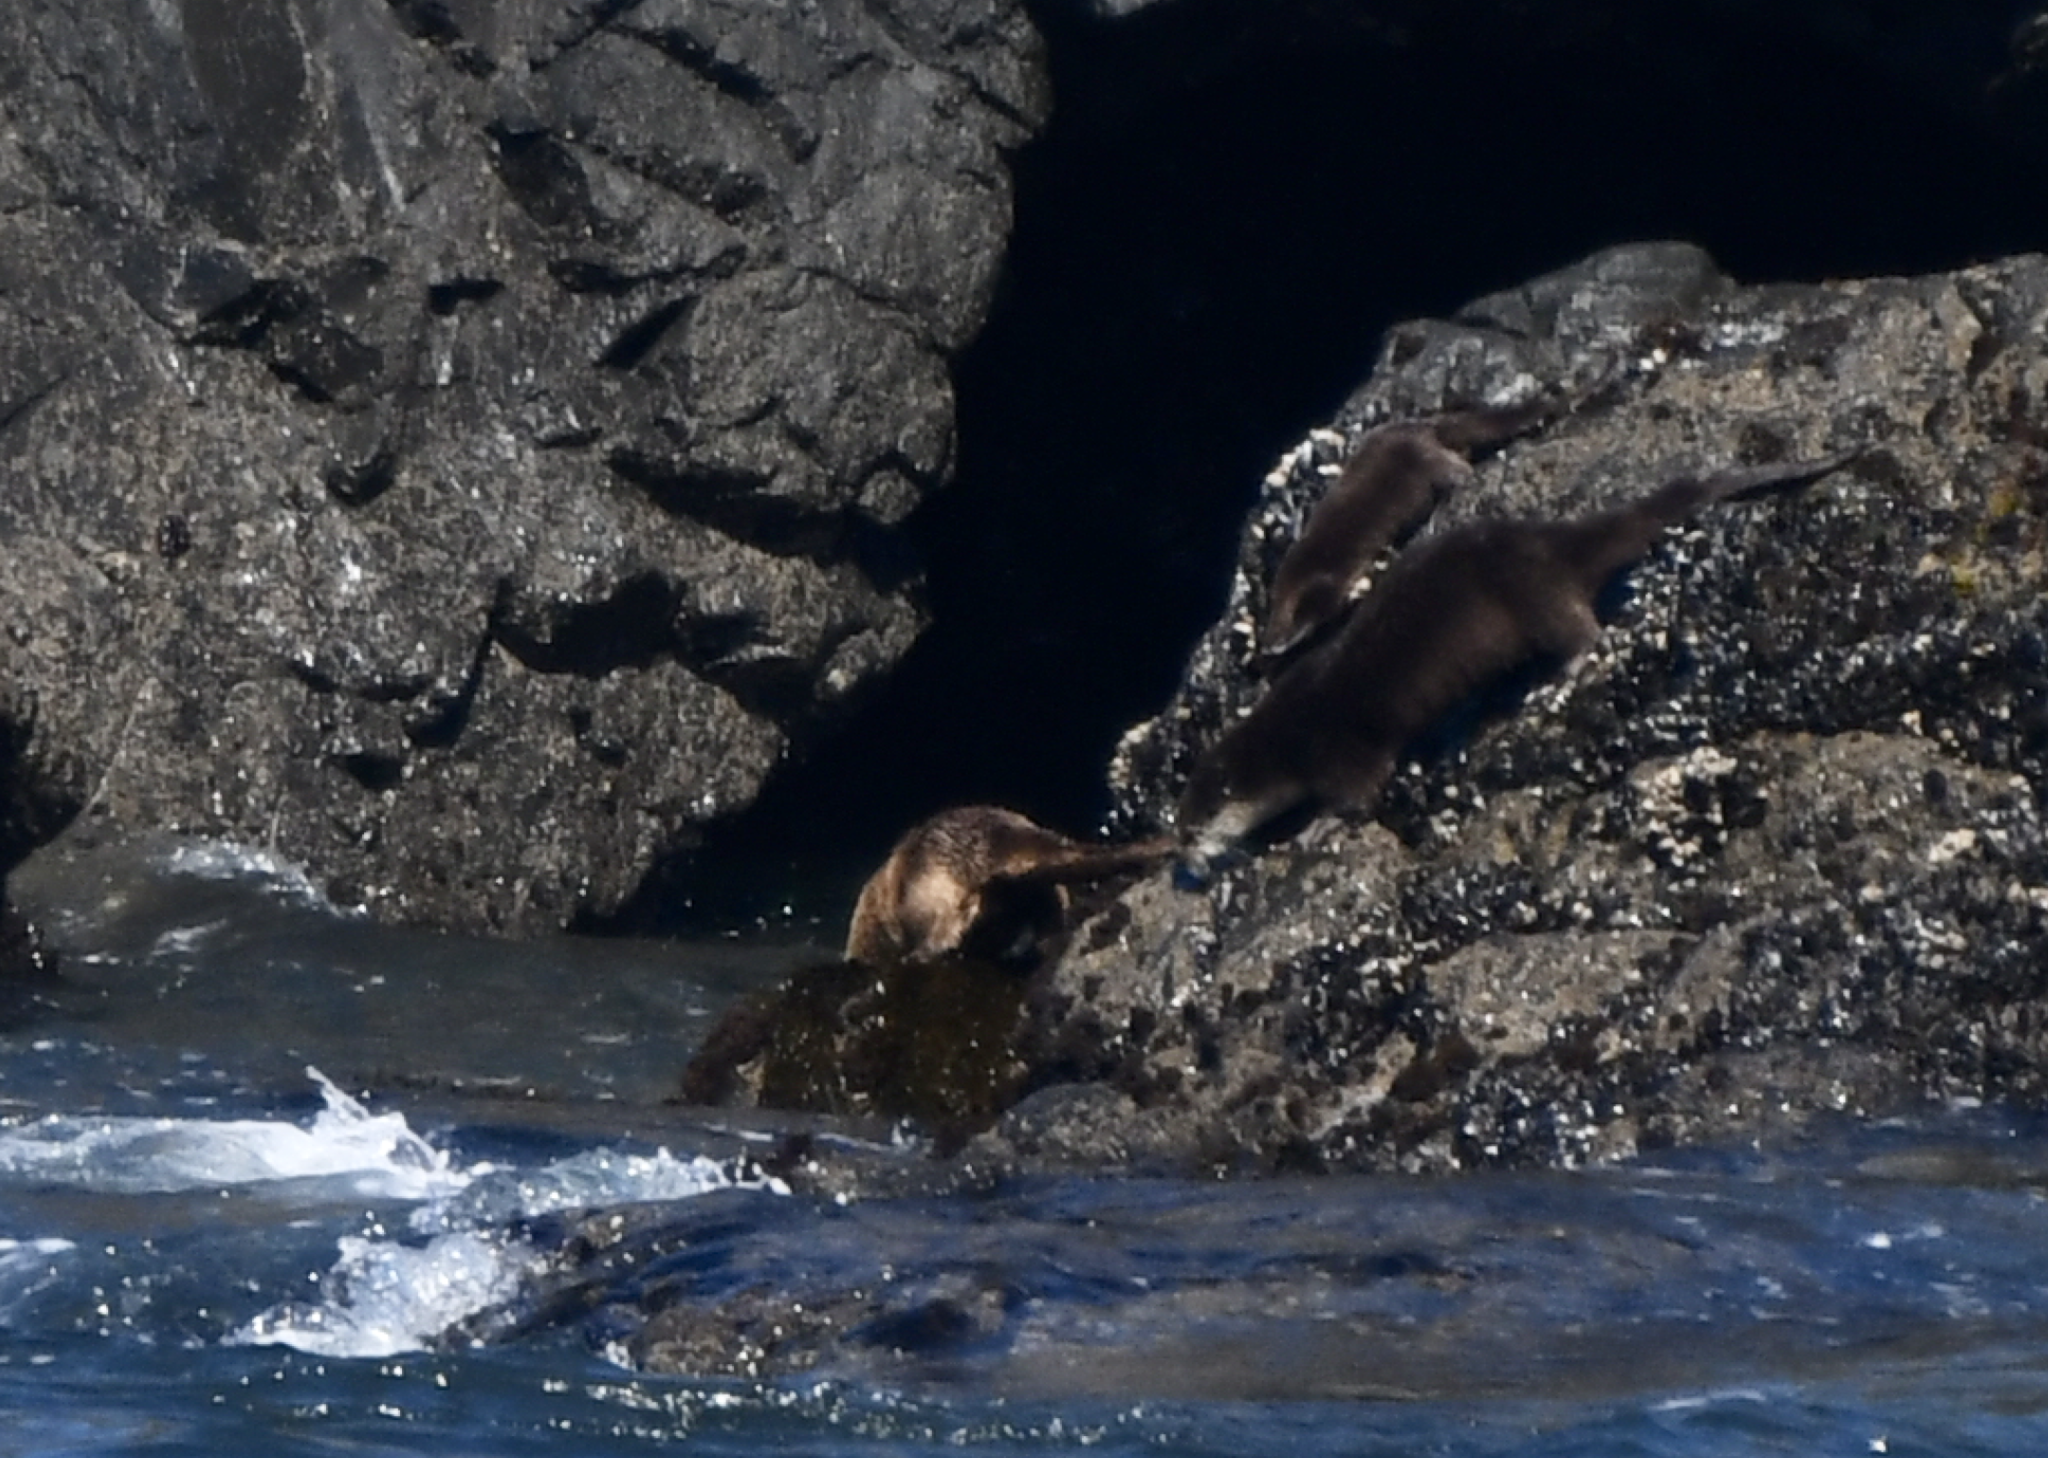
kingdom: Animalia
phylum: Chordata
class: Mammalia
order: Carnivora
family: Mustelidae
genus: Lontra
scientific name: Lontra canadensis
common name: North american river otter
